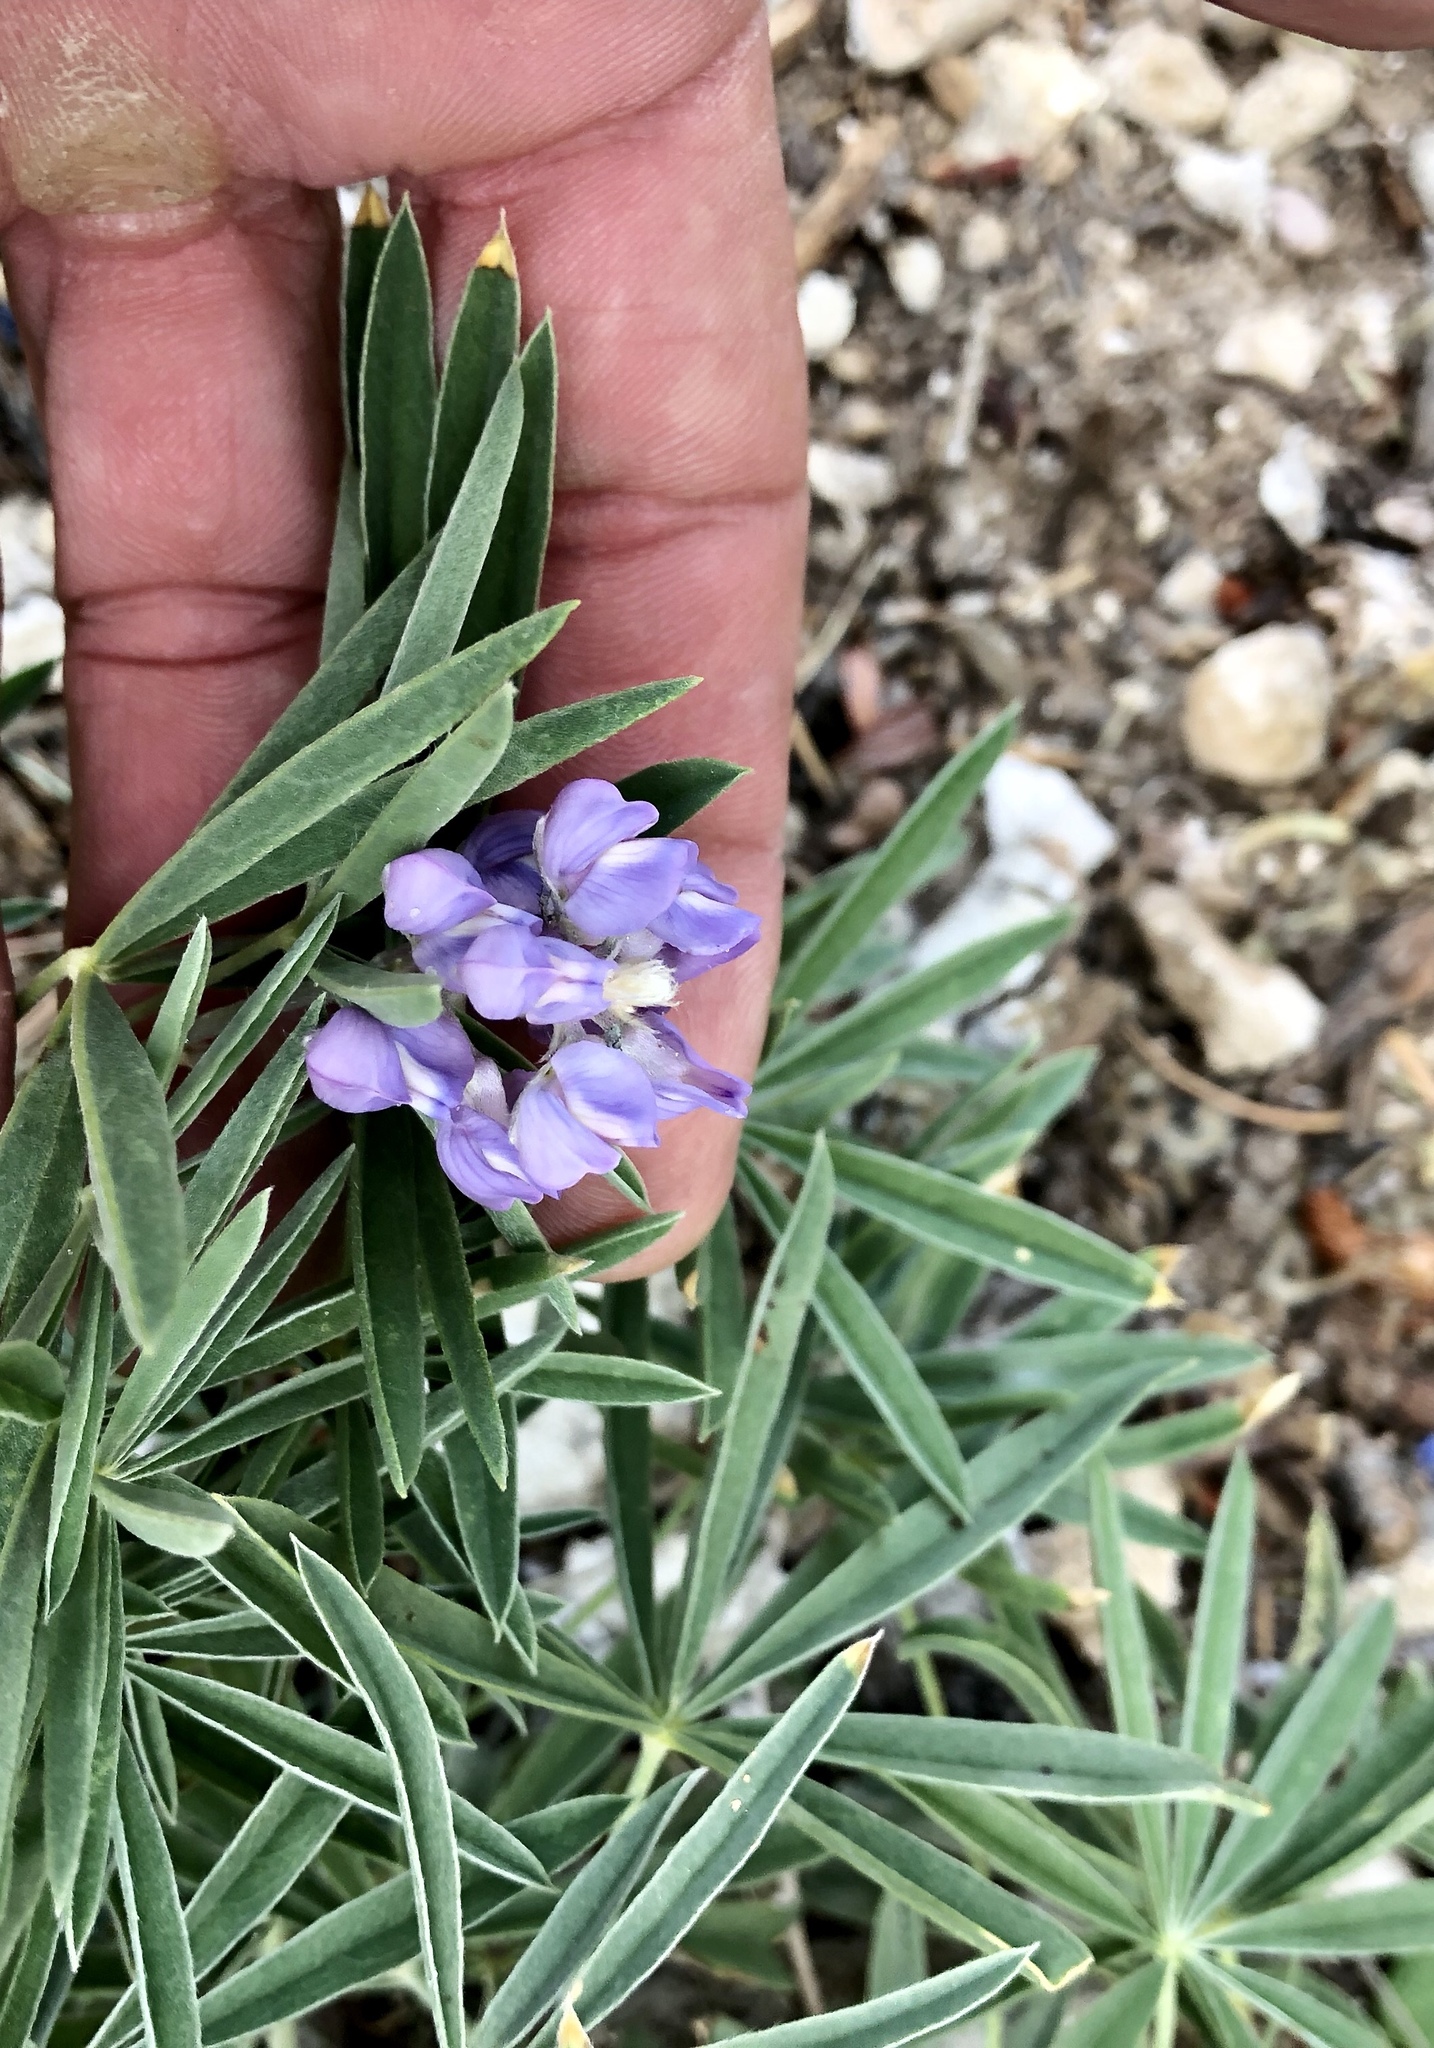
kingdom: Plantae
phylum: Tracheophyta
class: Magnoliopsida
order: Fabales
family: Fabaceae
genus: Lupinus
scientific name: Lupinus argenteus
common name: Silvery lupine
